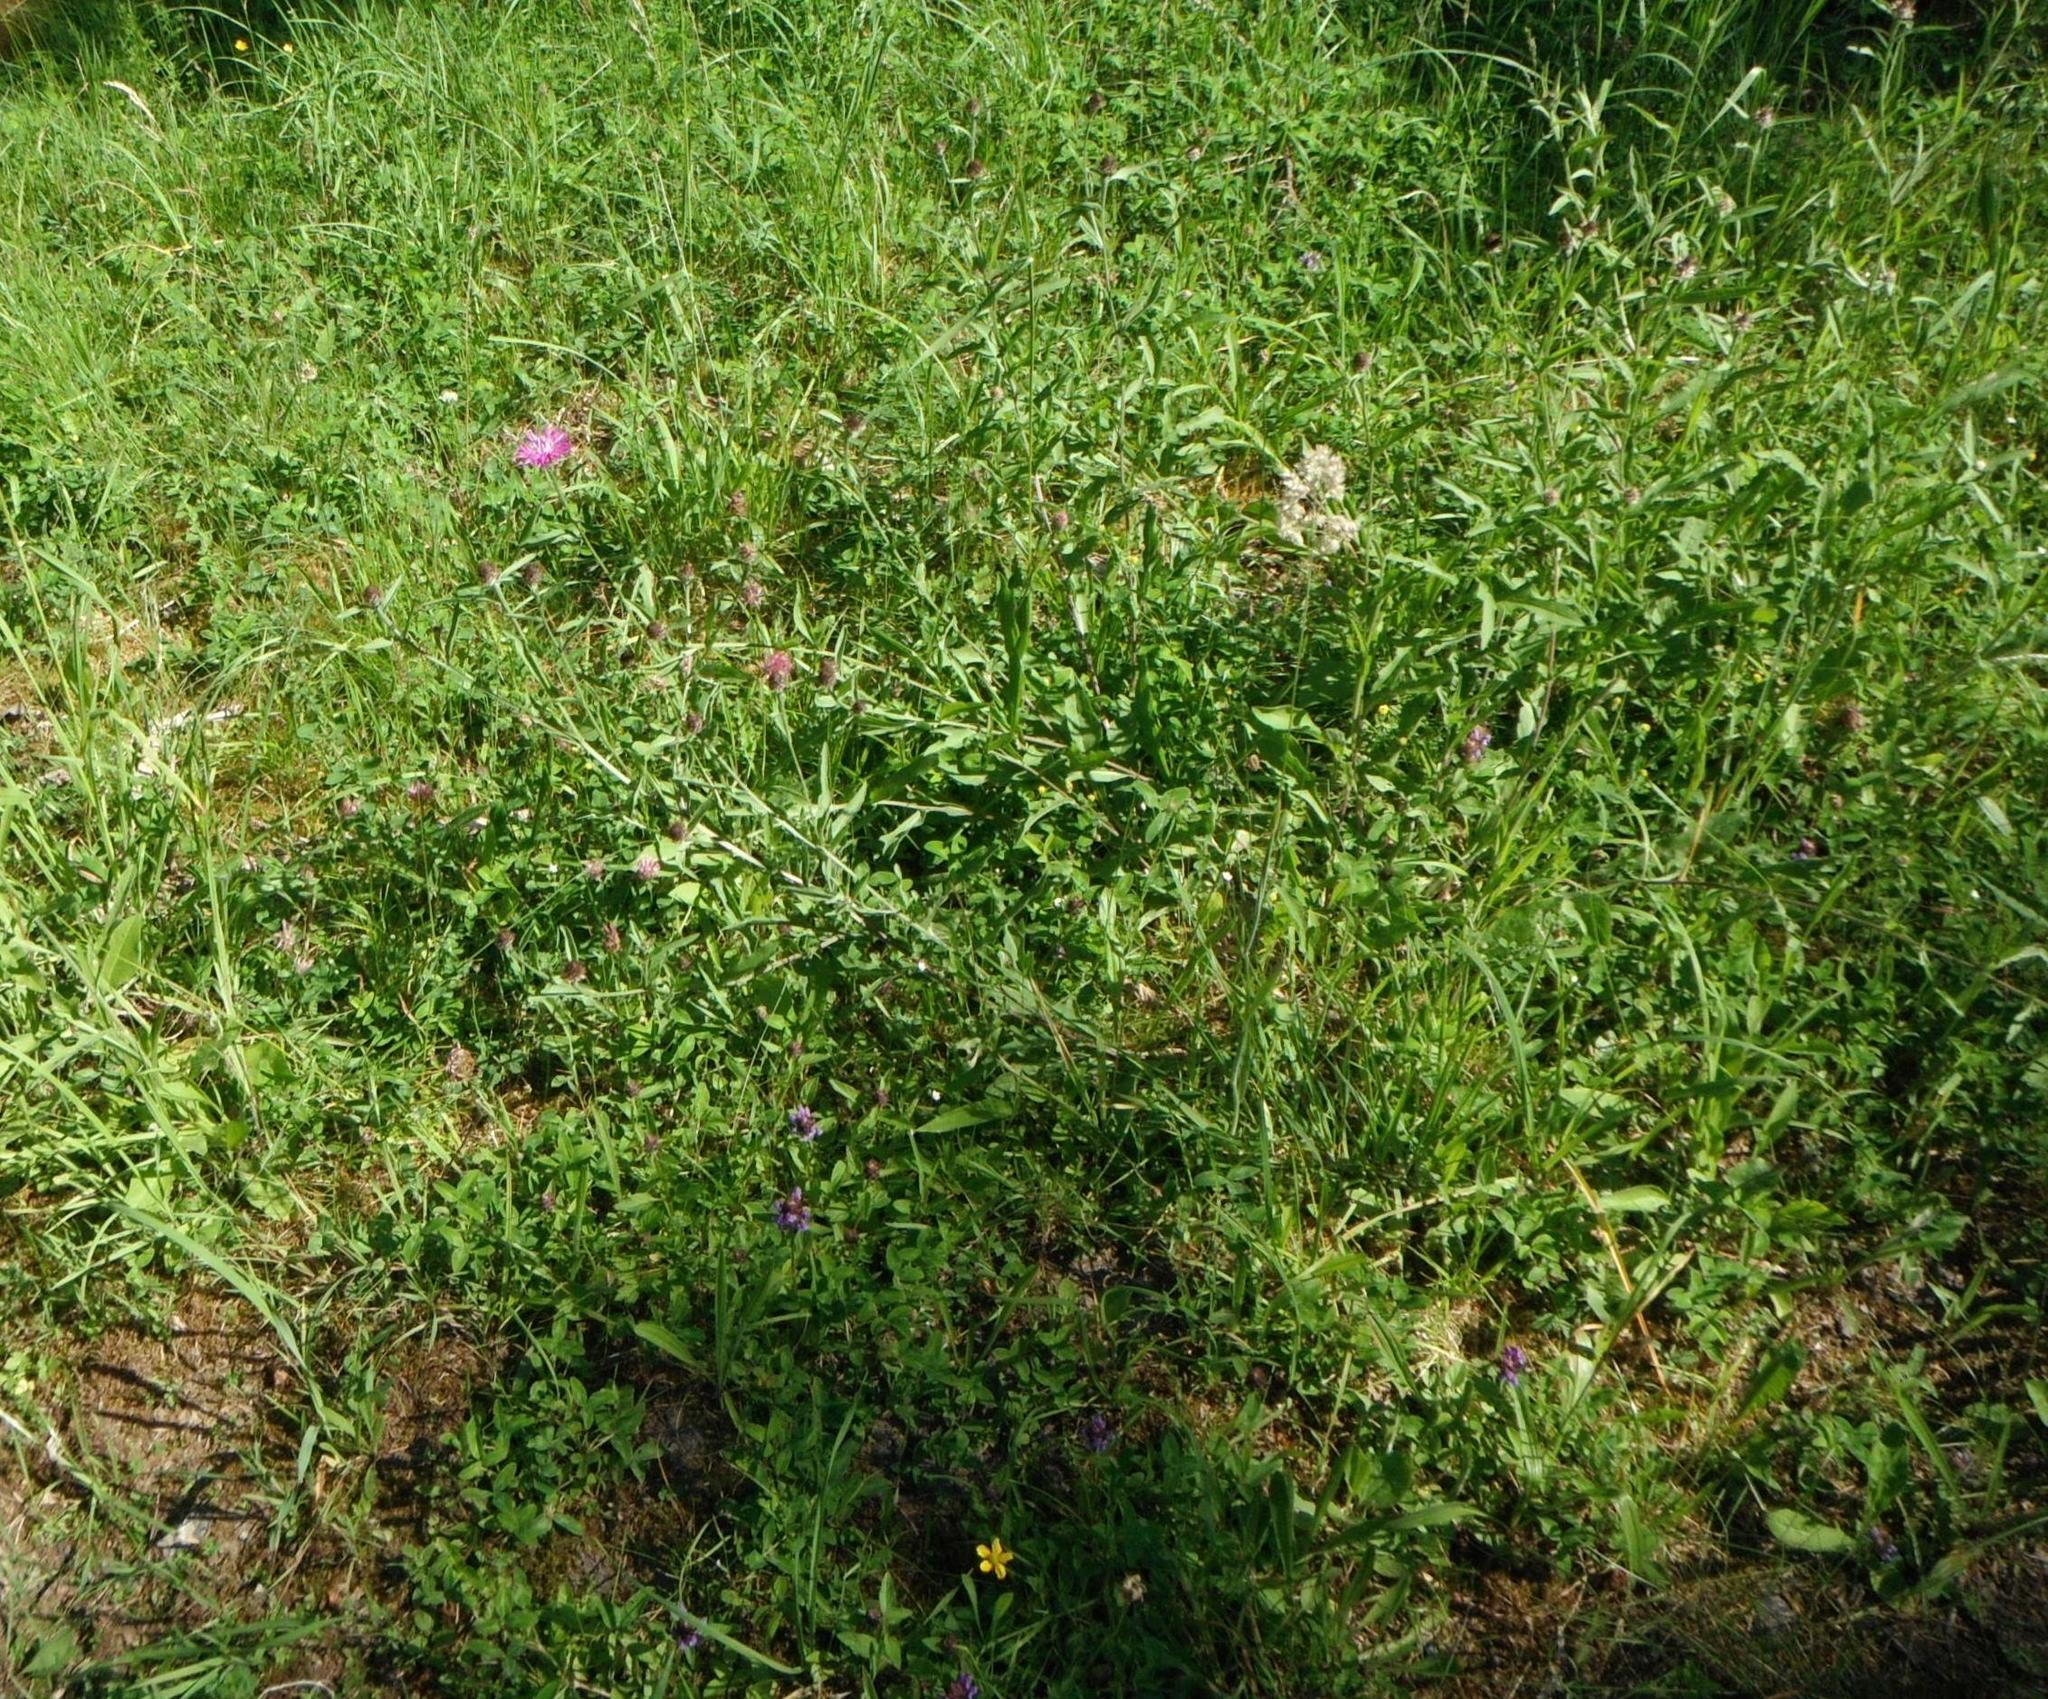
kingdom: Plantae
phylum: Tracheophyta
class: Magnoliopsida
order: Asterales
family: Asteraceae
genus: Centaurea
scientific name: Centaurea jacea
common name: Brown knapweed
